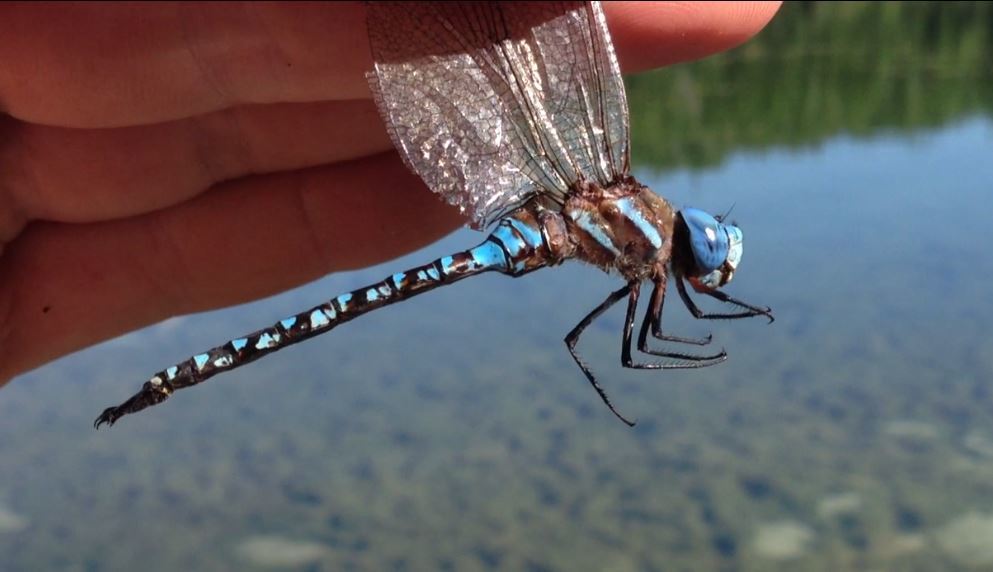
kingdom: Animalia
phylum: Arthropoda
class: Insecta
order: Odonata
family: Aeshnidae
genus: Rhionaeschna
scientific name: Rhionaeschna multicolor
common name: Blue-eyed darner
